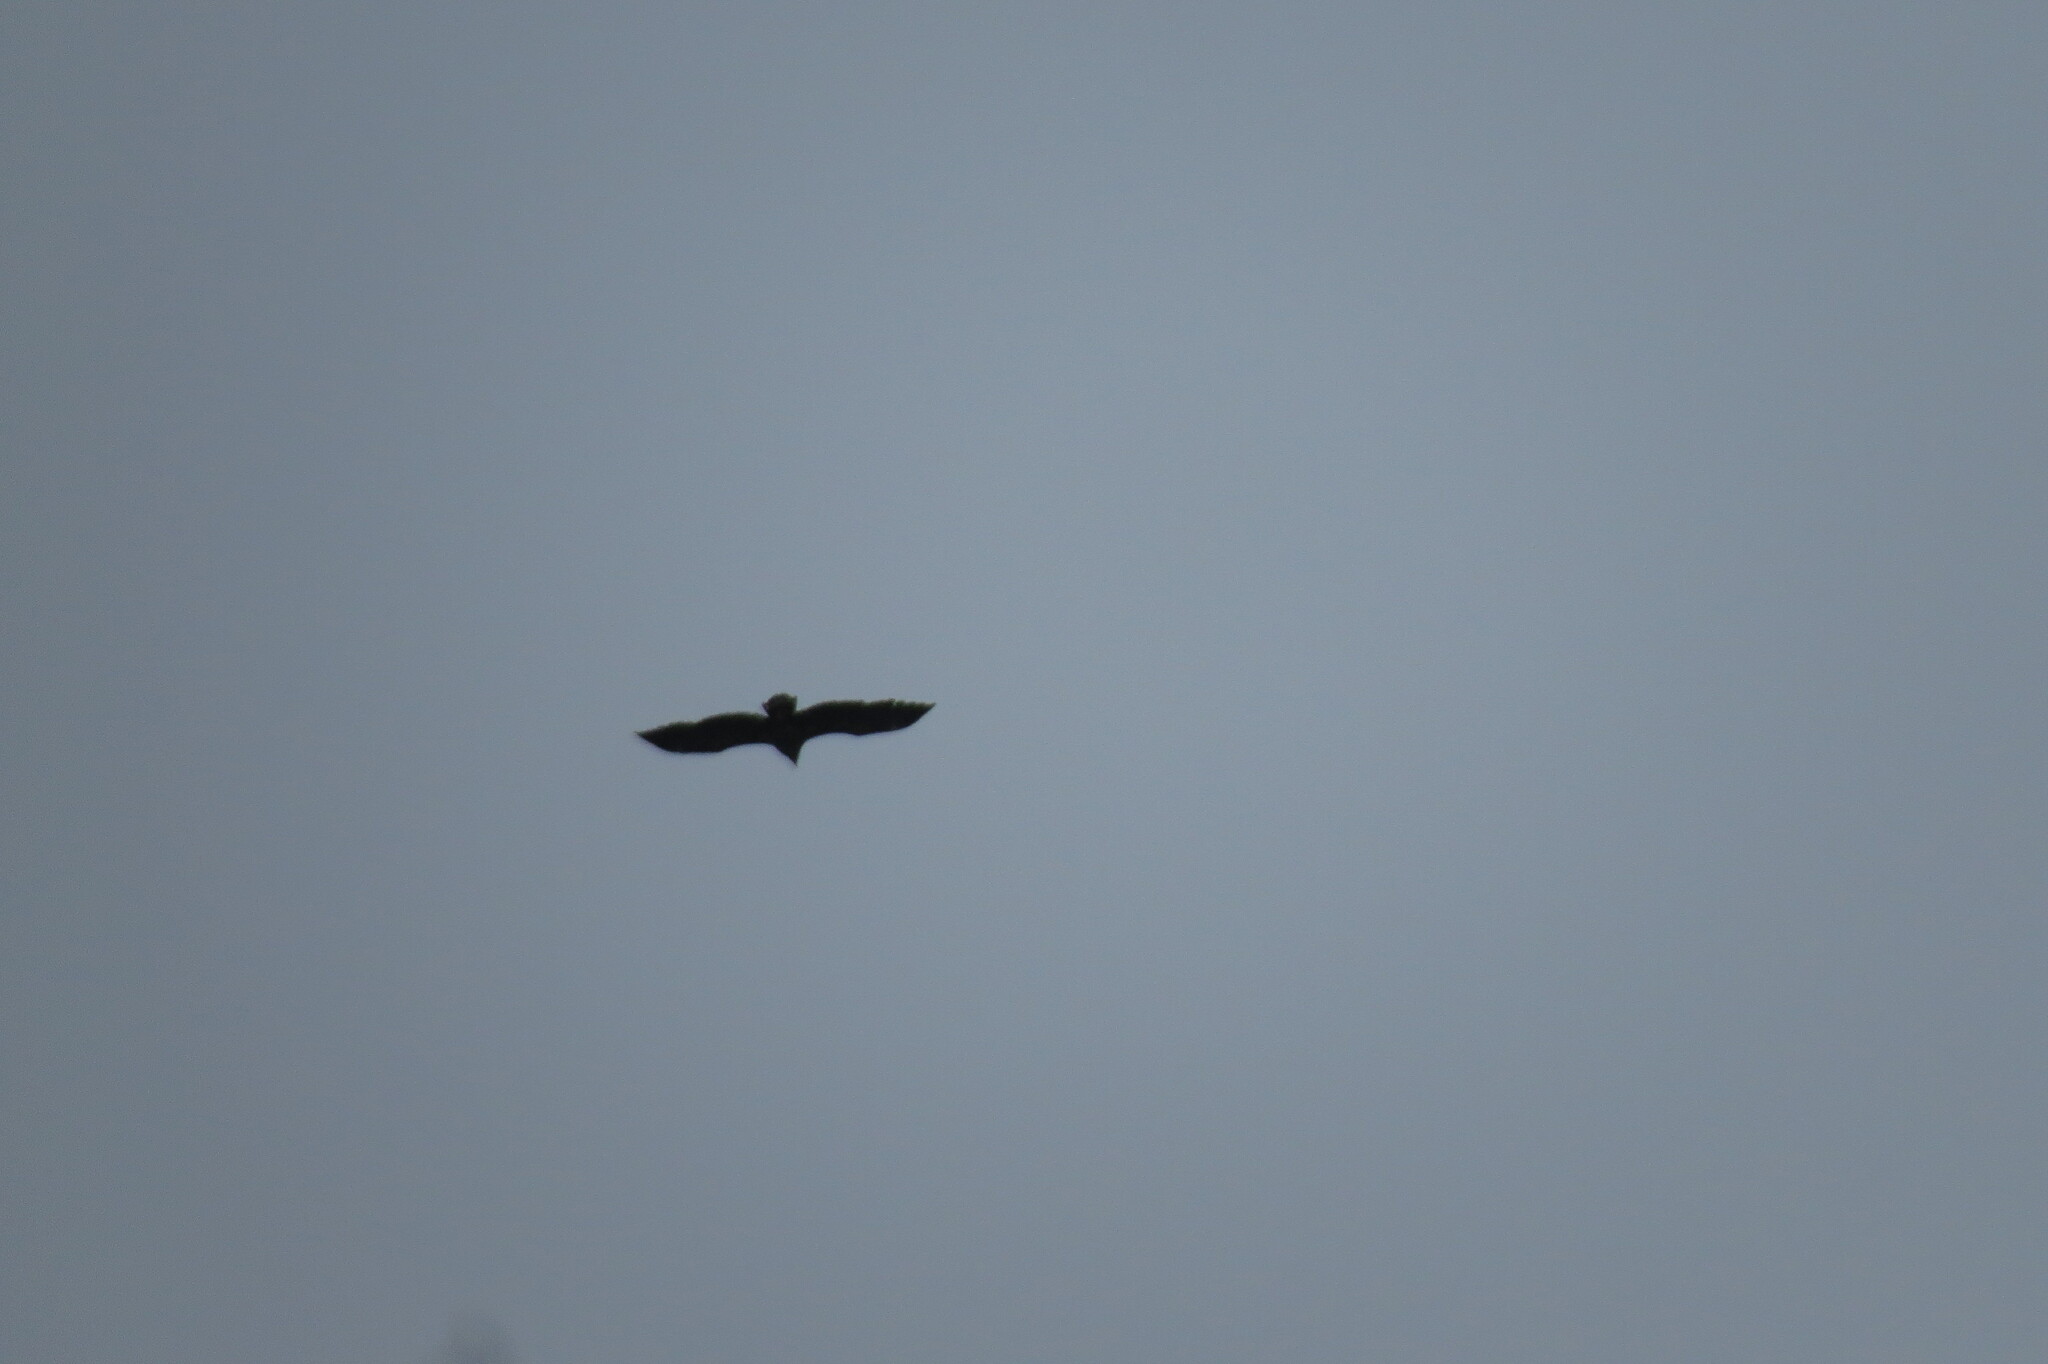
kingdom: Animalia
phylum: Chordata
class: Aves
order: Accipitriformes
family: Accipitridae
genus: Haliaeetus
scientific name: Haliaeetus albicilla
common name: White-tailed eagle
